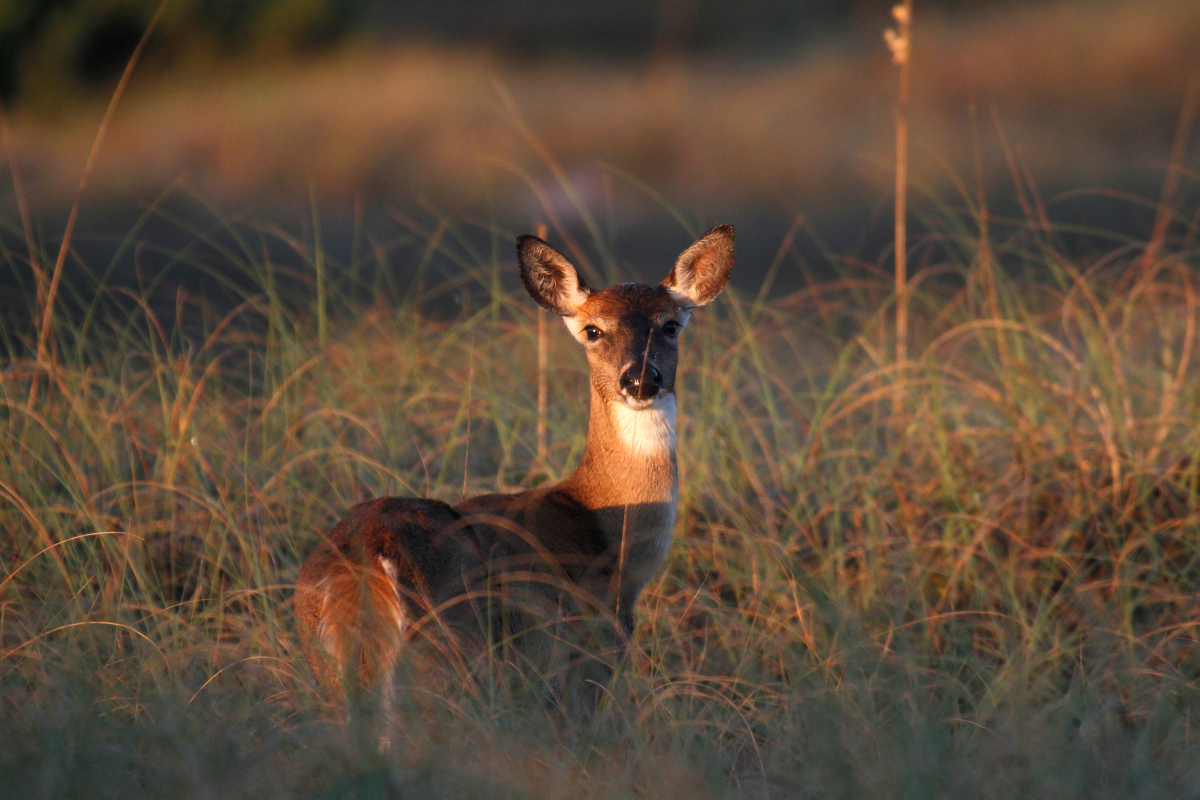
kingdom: Animalia
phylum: Chordata
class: Mammalia
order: Artiodactyla
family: Cervidae
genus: Odocoileus
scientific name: Odocoileus virginianus
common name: White-tailed deer
